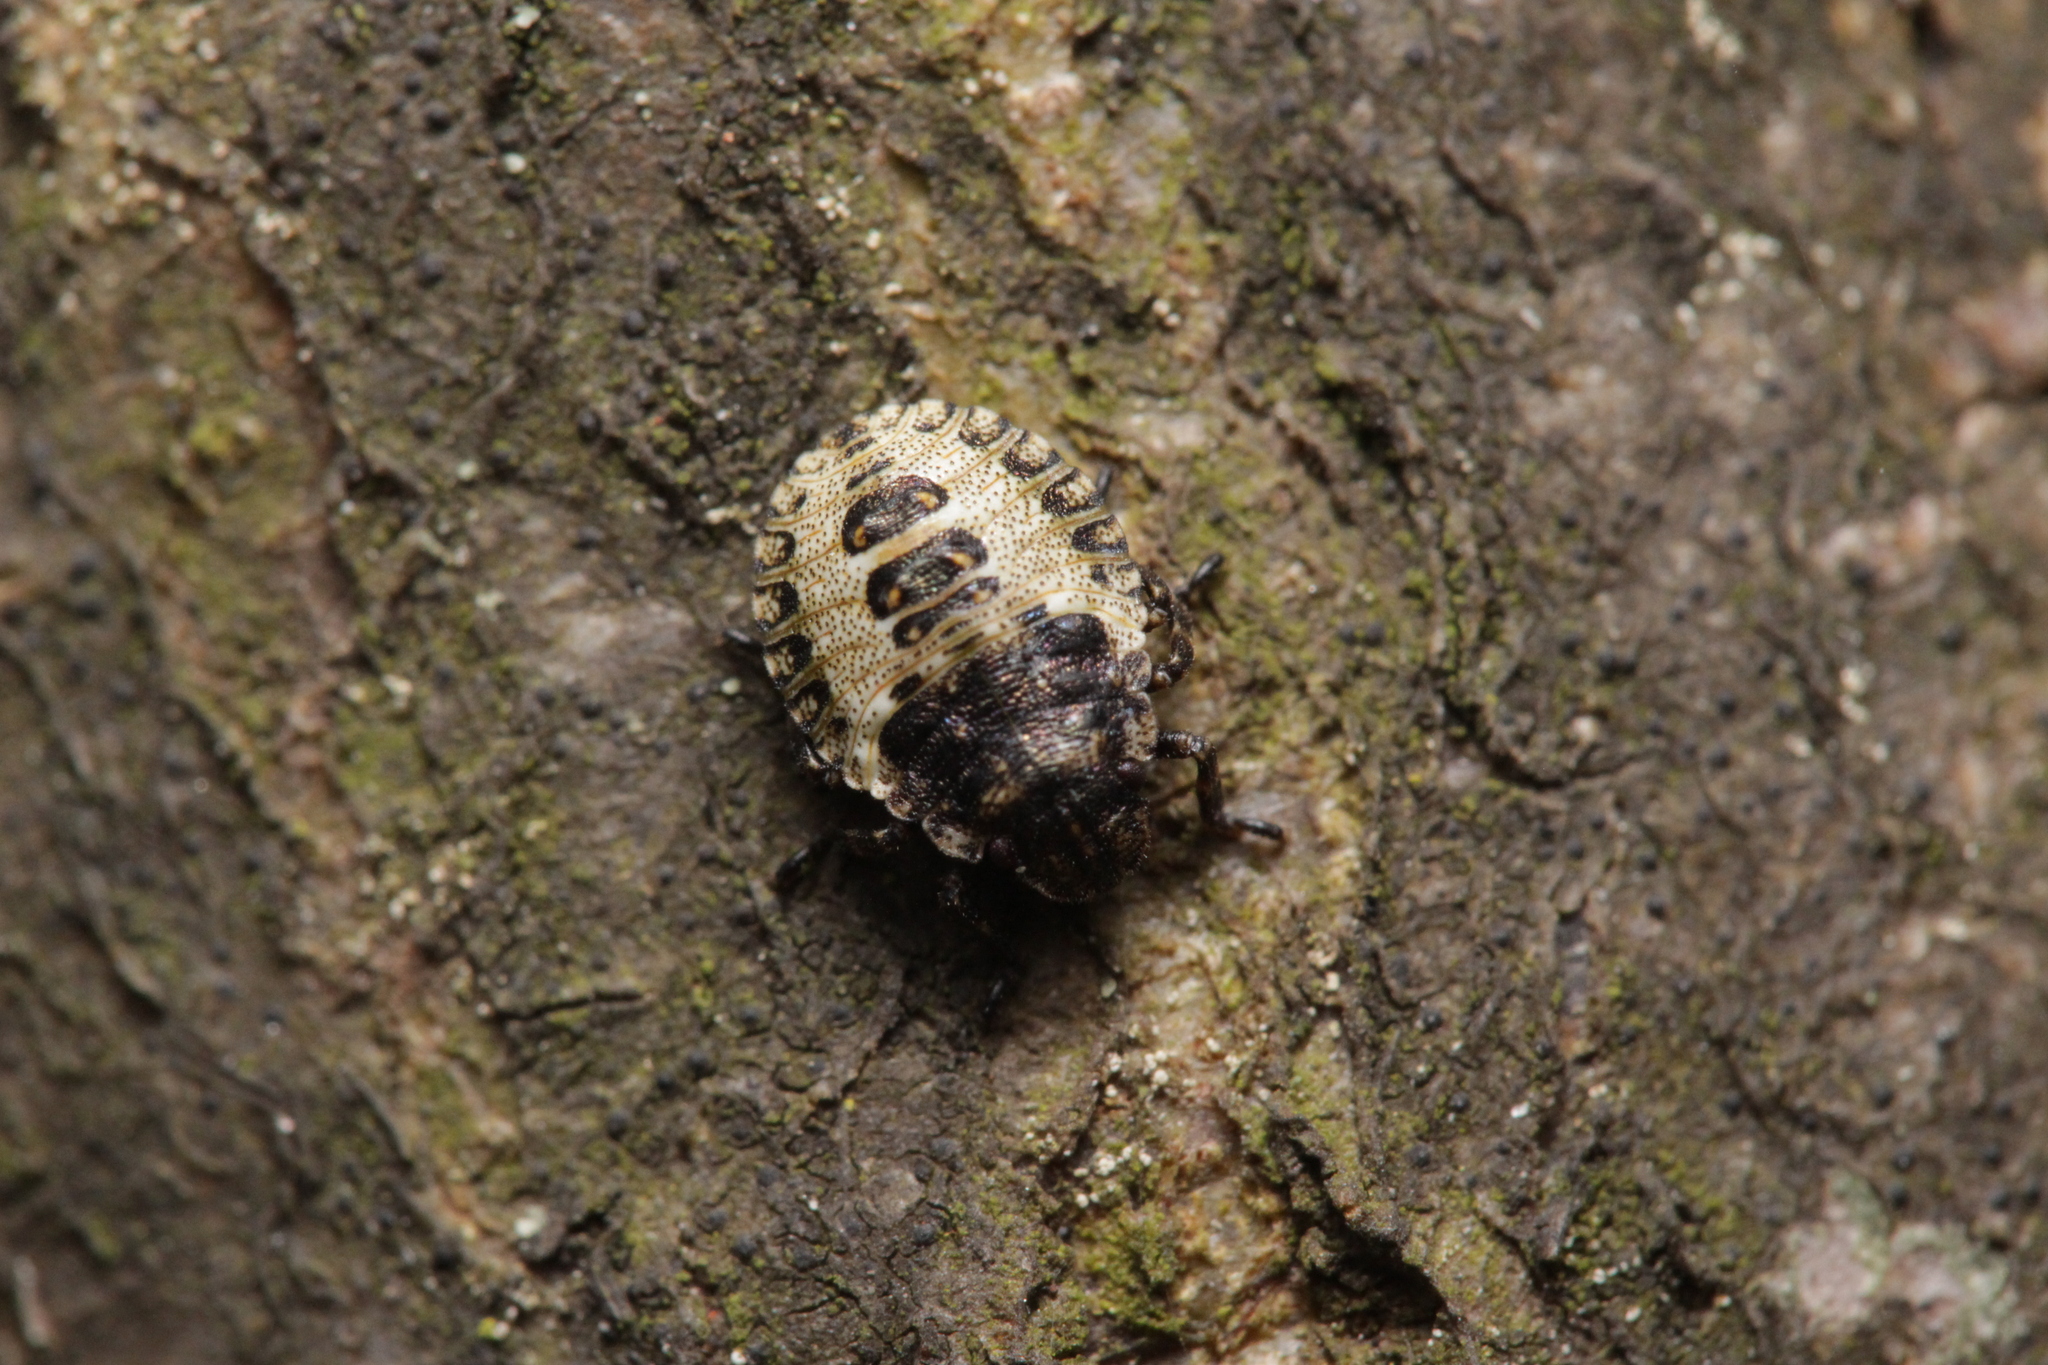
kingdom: Animalia
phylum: Arthropoda
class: Insecta
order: Hemiptera
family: Pentatomidae
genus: Pentatoma
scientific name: Pentatoma rufipes
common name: Forest bug
